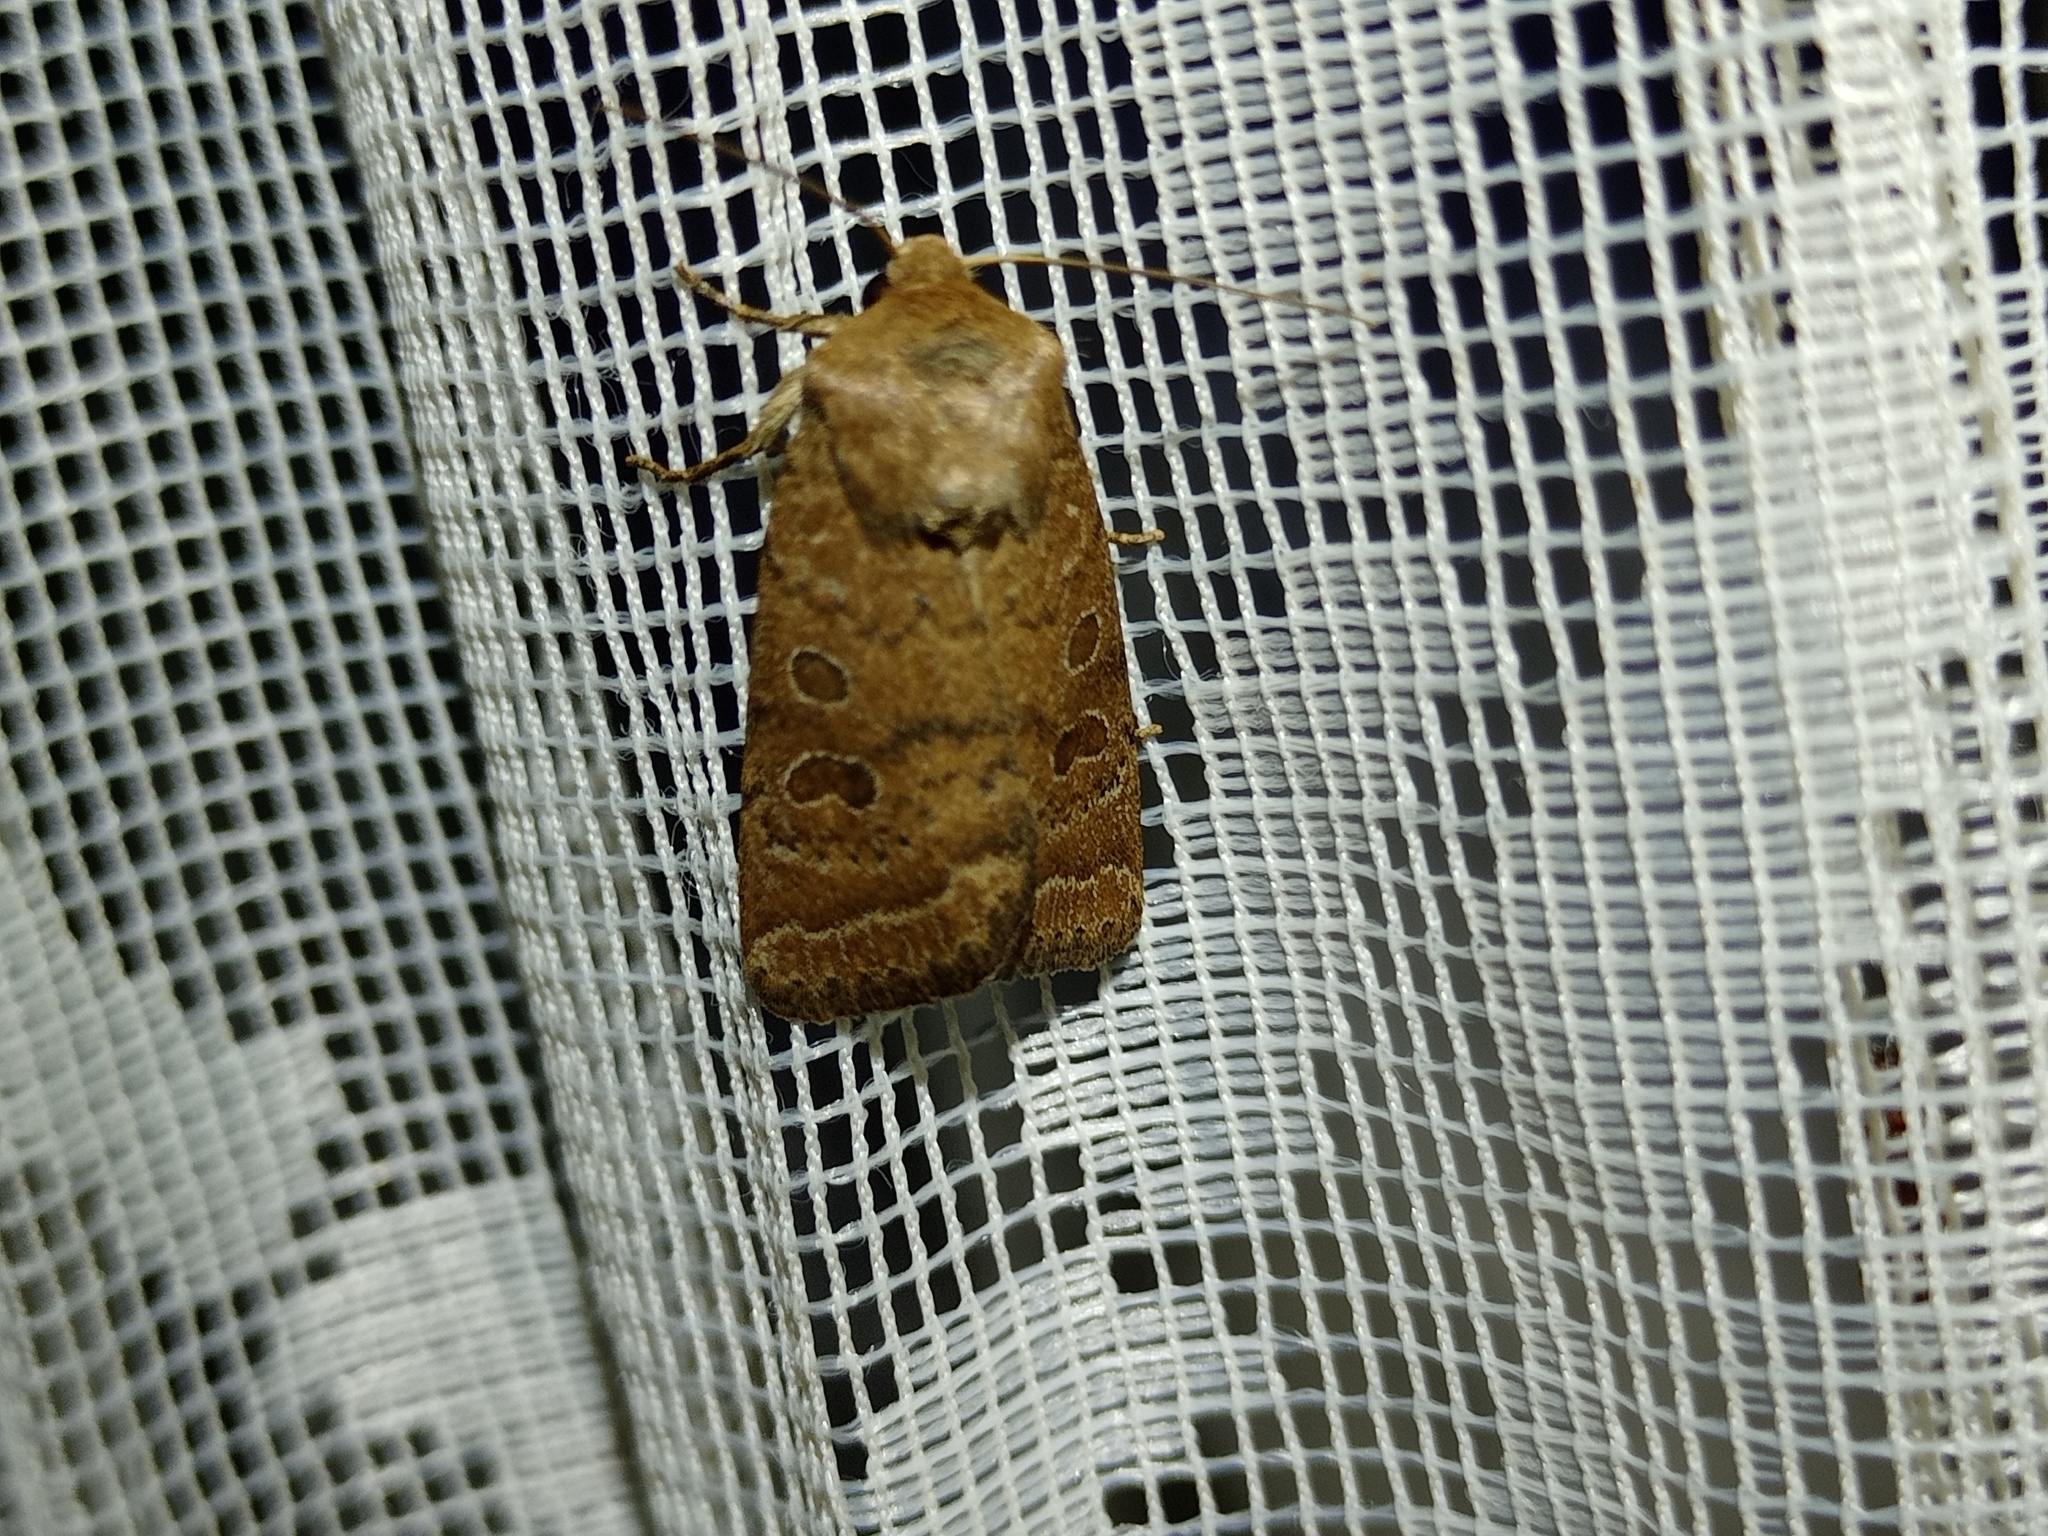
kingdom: Animalia
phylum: Arthropoda
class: Insecta
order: Lepidoptera
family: Noctuidae
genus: Hoplodrina
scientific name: Hoplodrina octogenaria
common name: Uncertain
